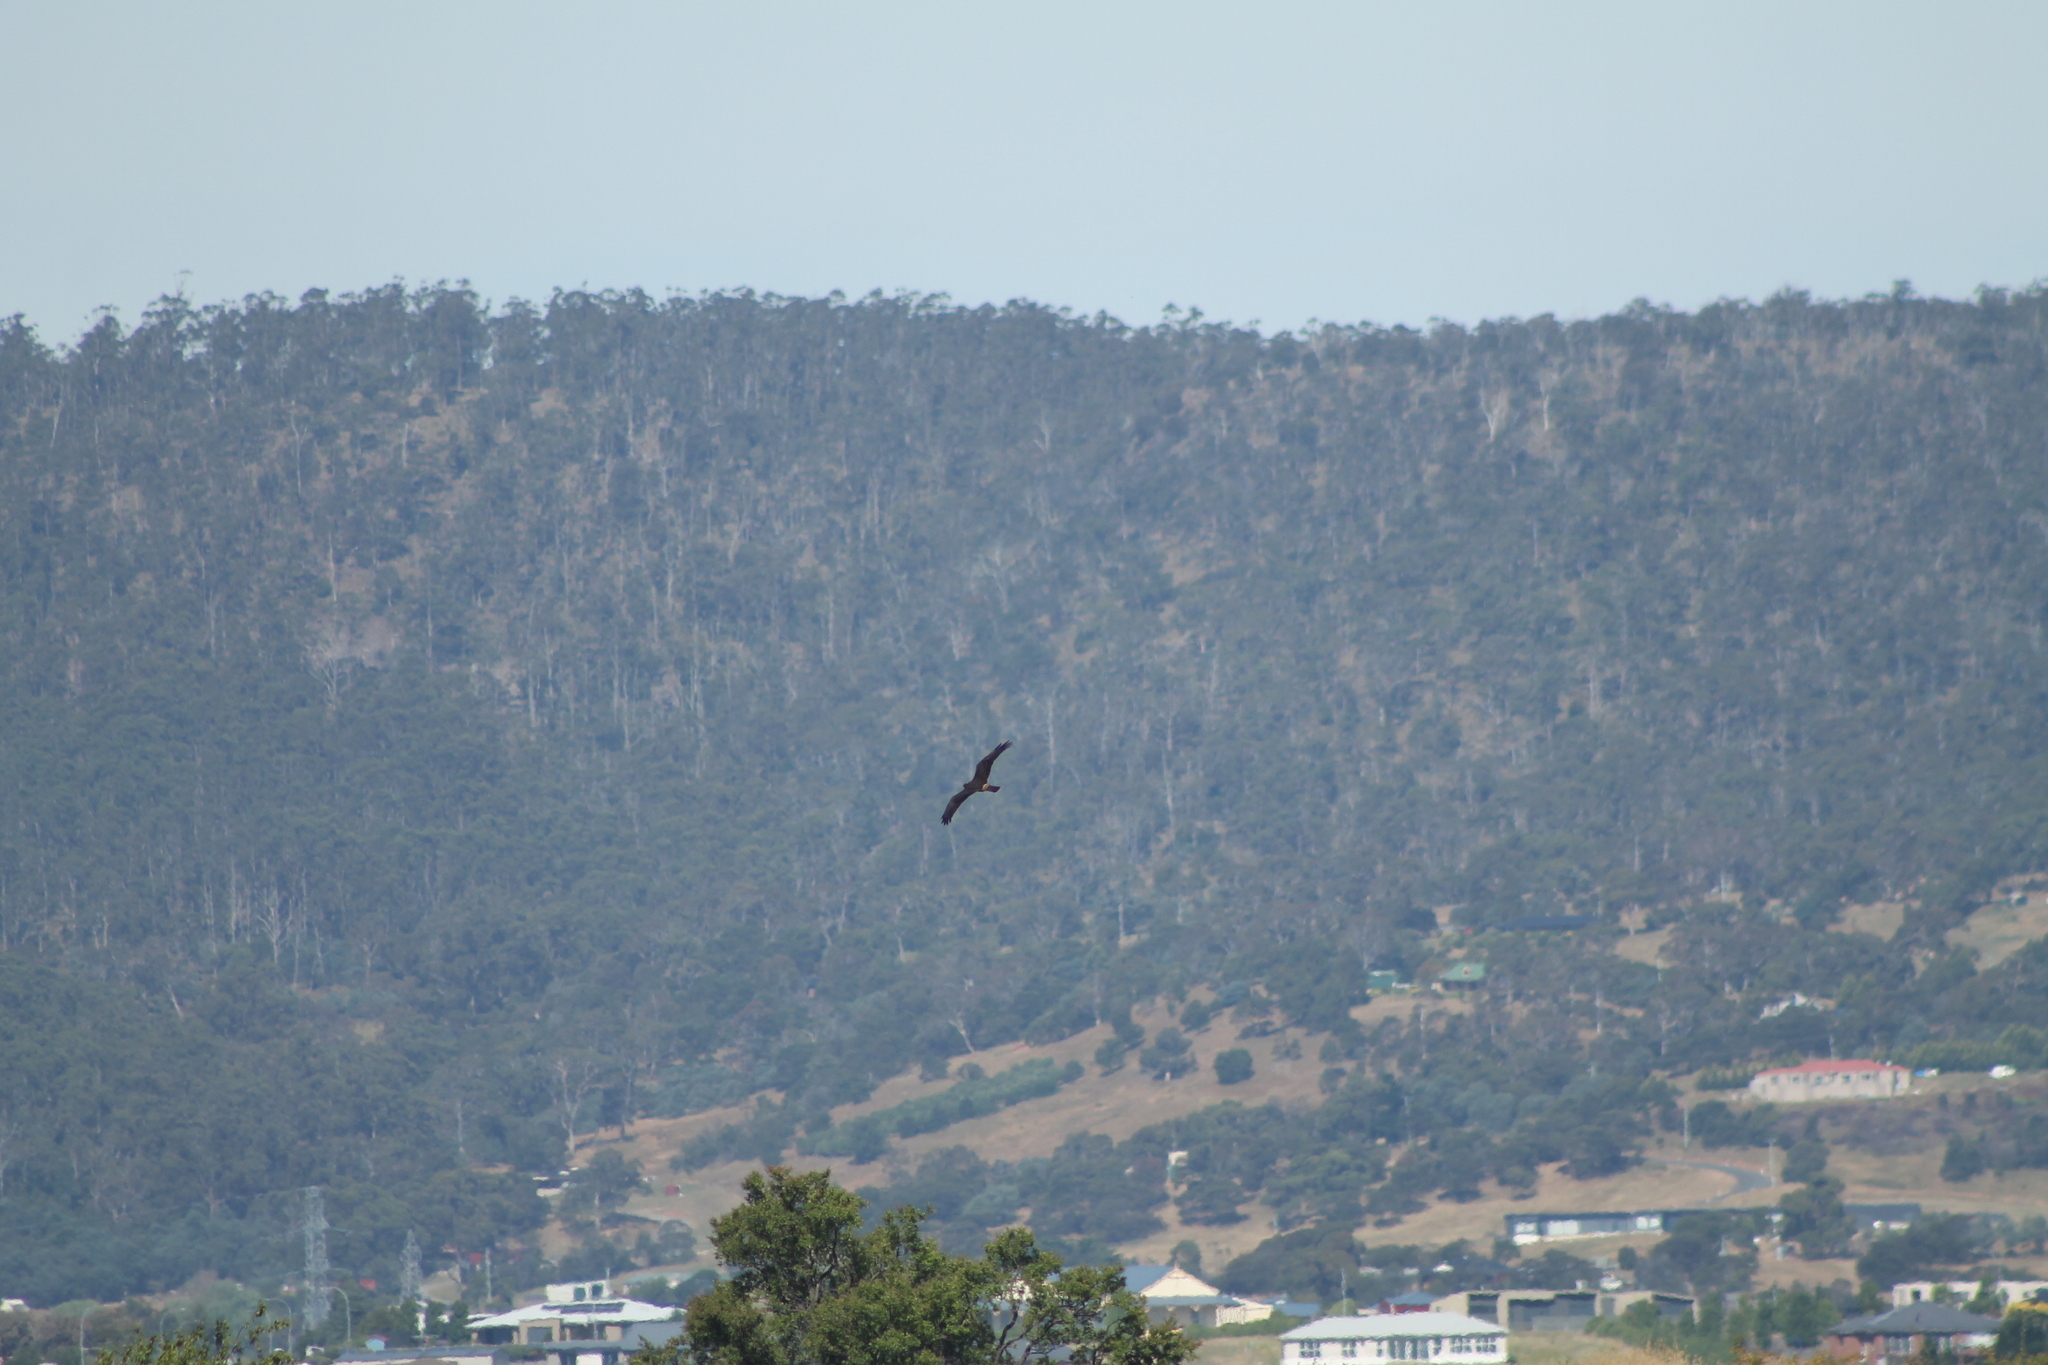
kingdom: Animalia
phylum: Chordata
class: Aves
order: Accipitriformes
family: Accipitridae
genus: Circus
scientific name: Circus approximans
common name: Swamp harrier
